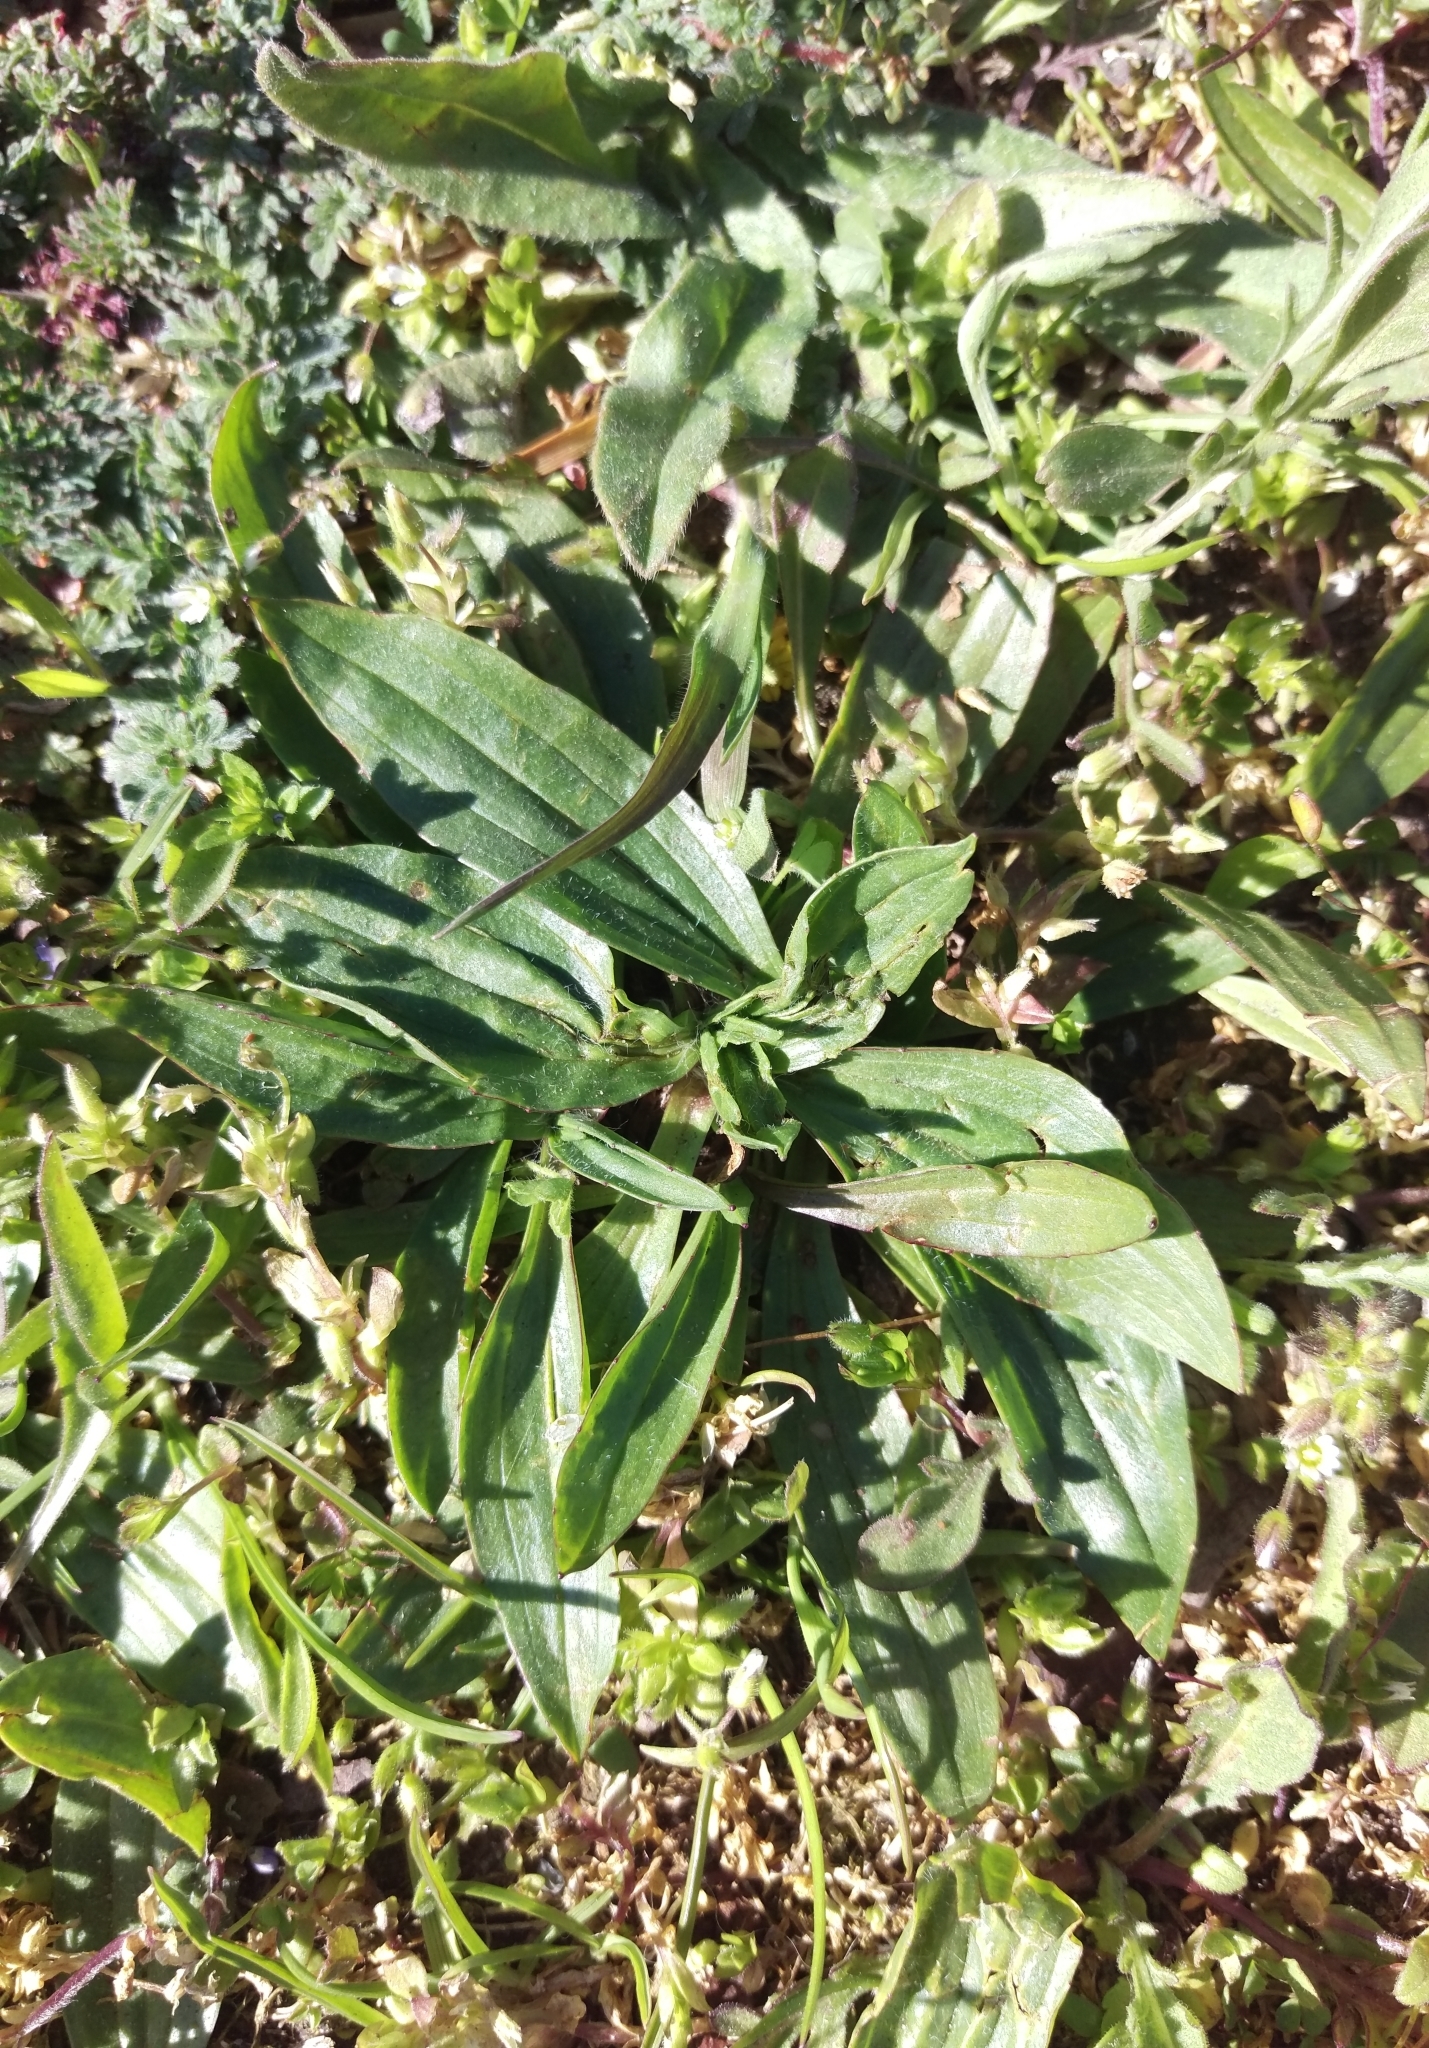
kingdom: Plantae
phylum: Tracheophyta
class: Magnoliopsida
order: Lamiales
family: Plantaginaceae
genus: Plantago
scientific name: Plantago lanceolata
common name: Ribwort plantain
